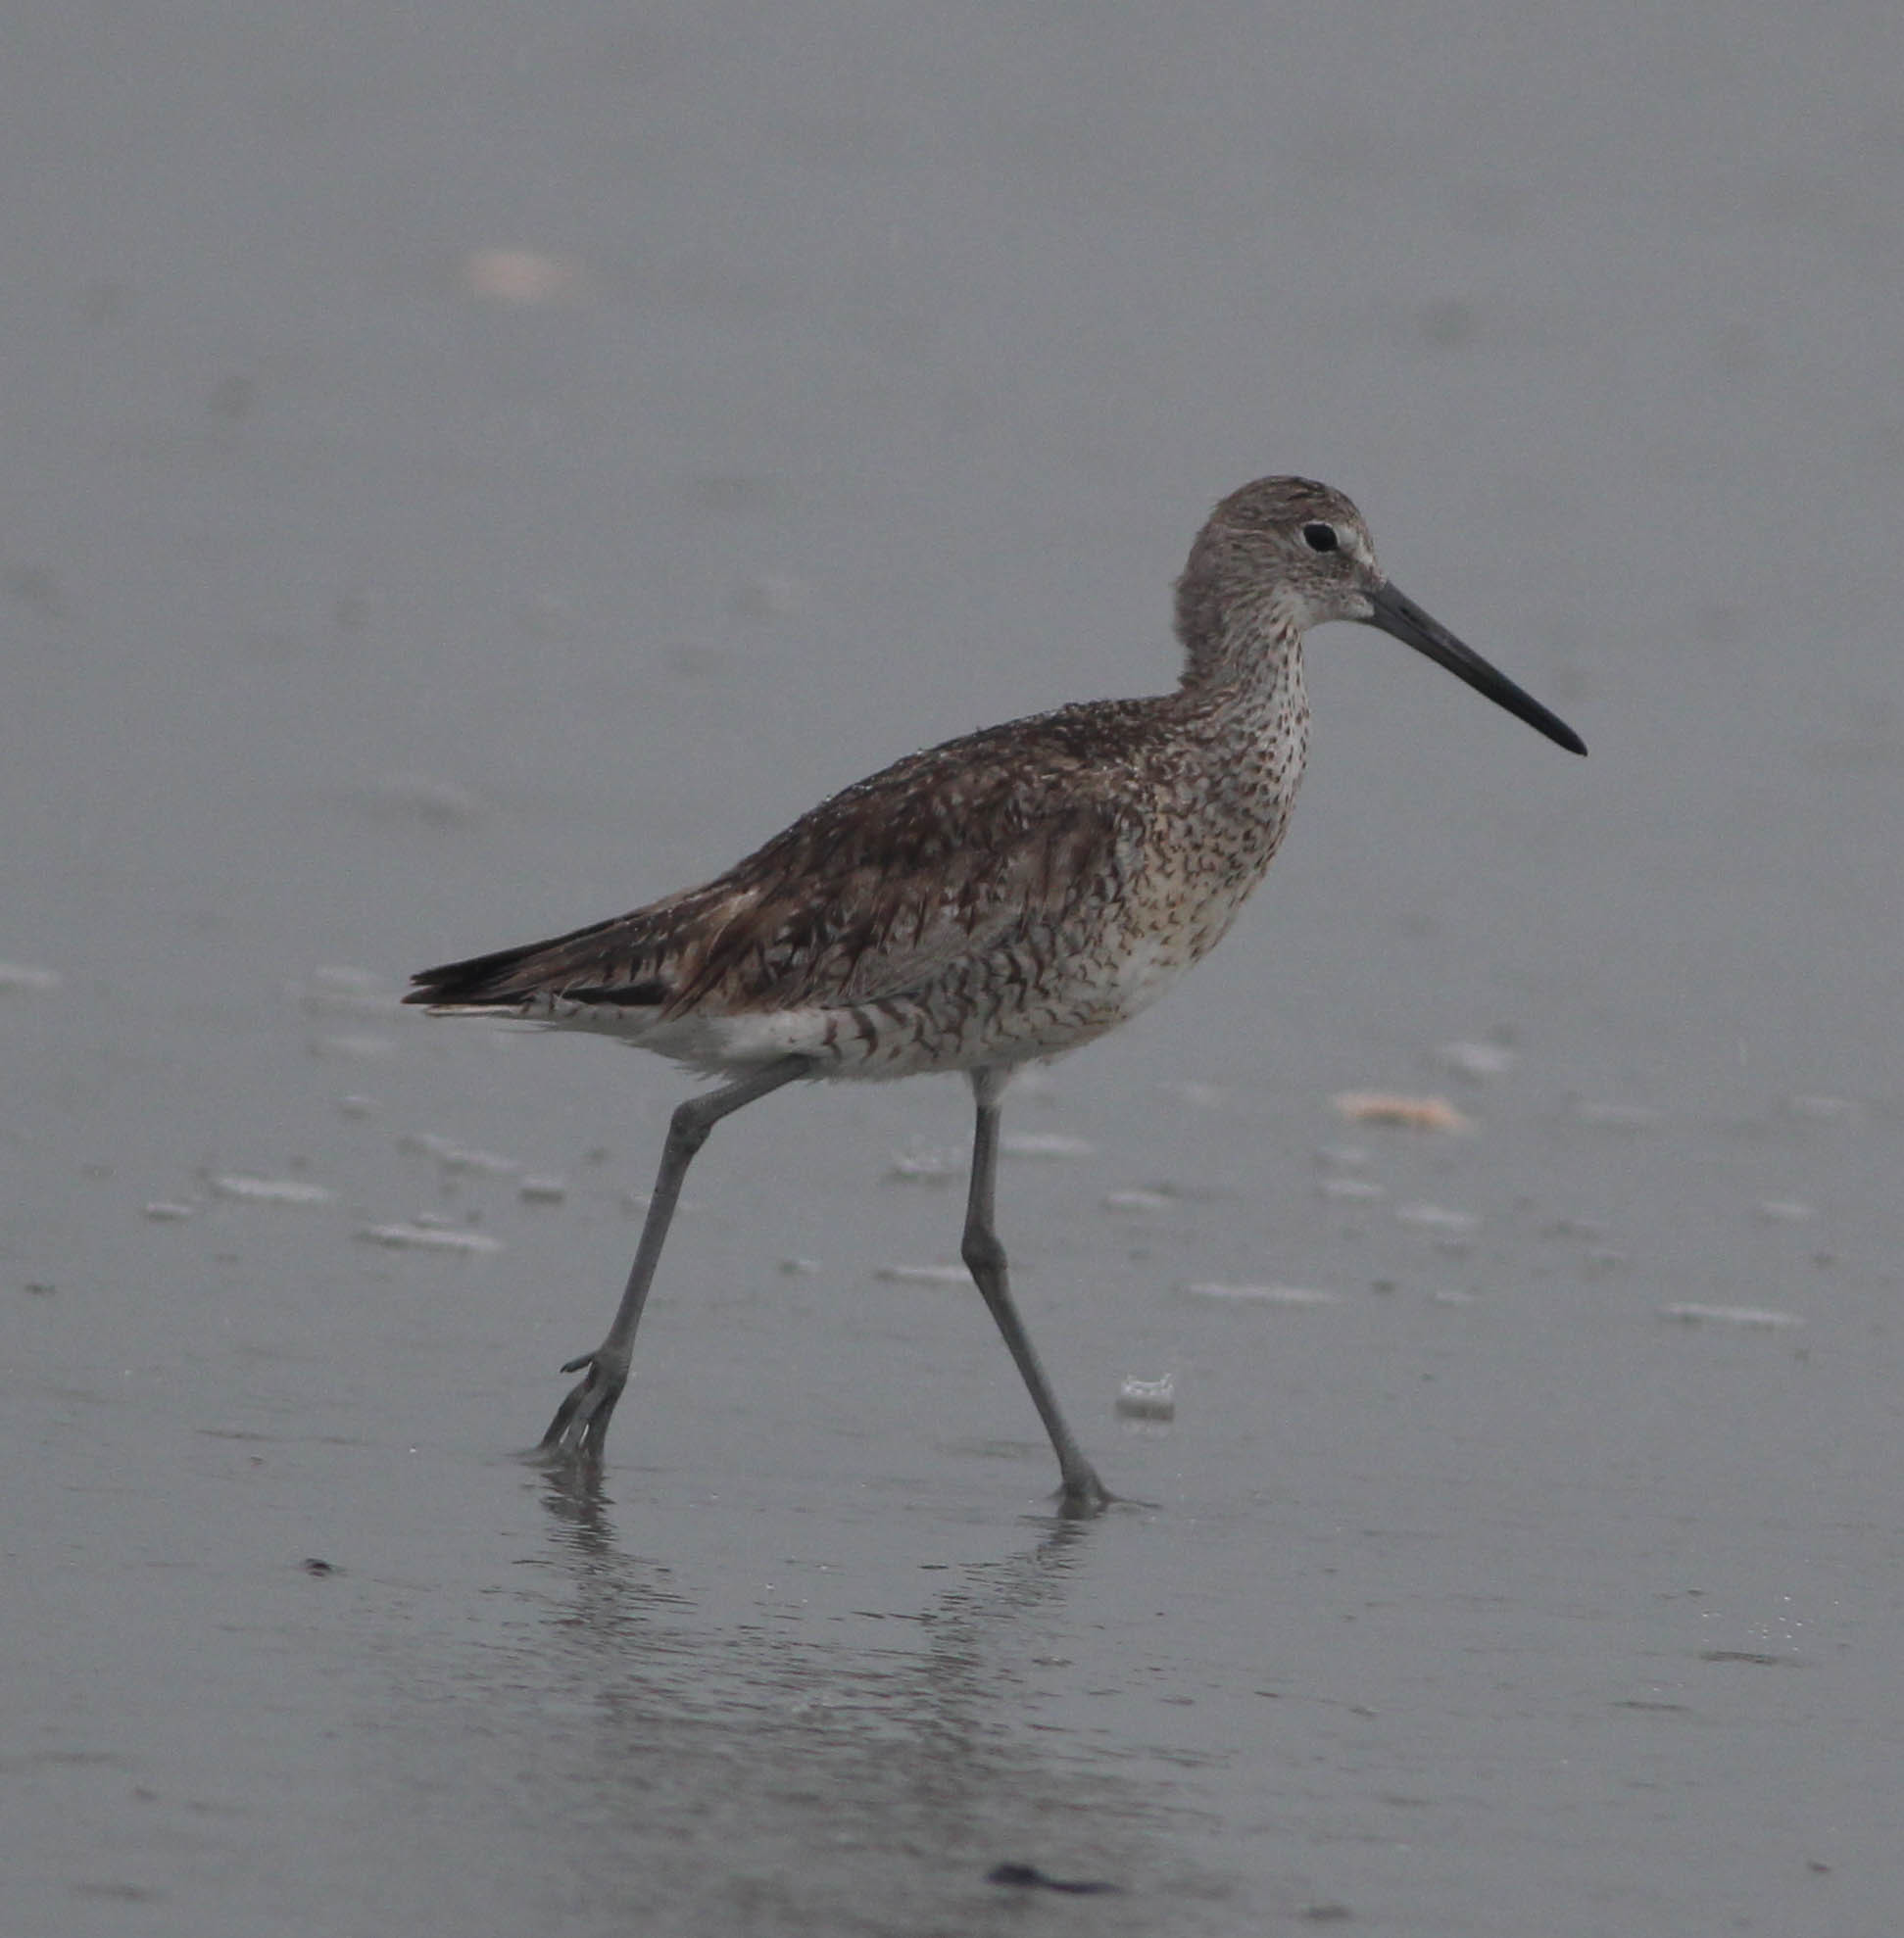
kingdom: Animalia
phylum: Chordata
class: Aves
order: Charadriiformes
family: Scolopacidae
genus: Tringa
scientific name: Tringa semipalmata
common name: Willet
